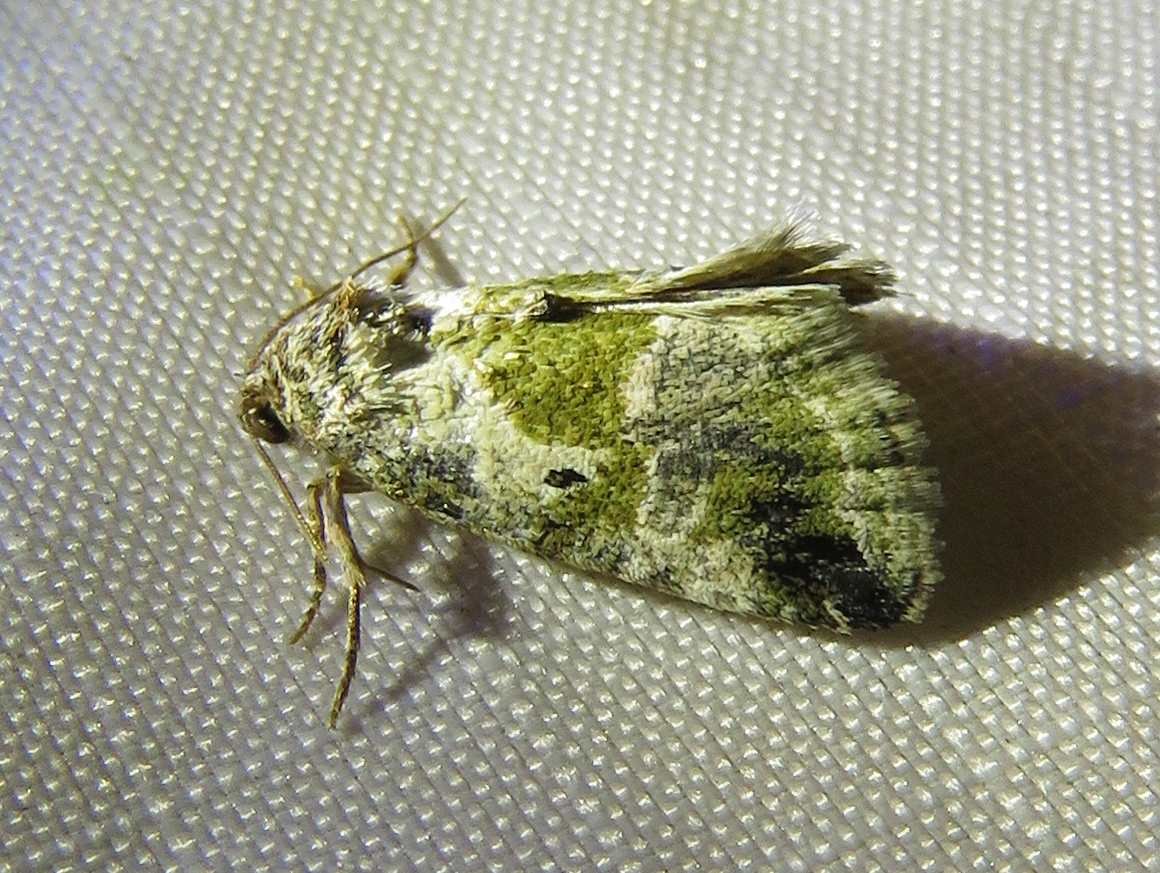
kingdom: Animalia
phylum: Arthropoda
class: Insecta
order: Lepidoptera
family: Noctuidae
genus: Maliattha
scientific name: Maliattha synochitis
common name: Black-dotted glyph
